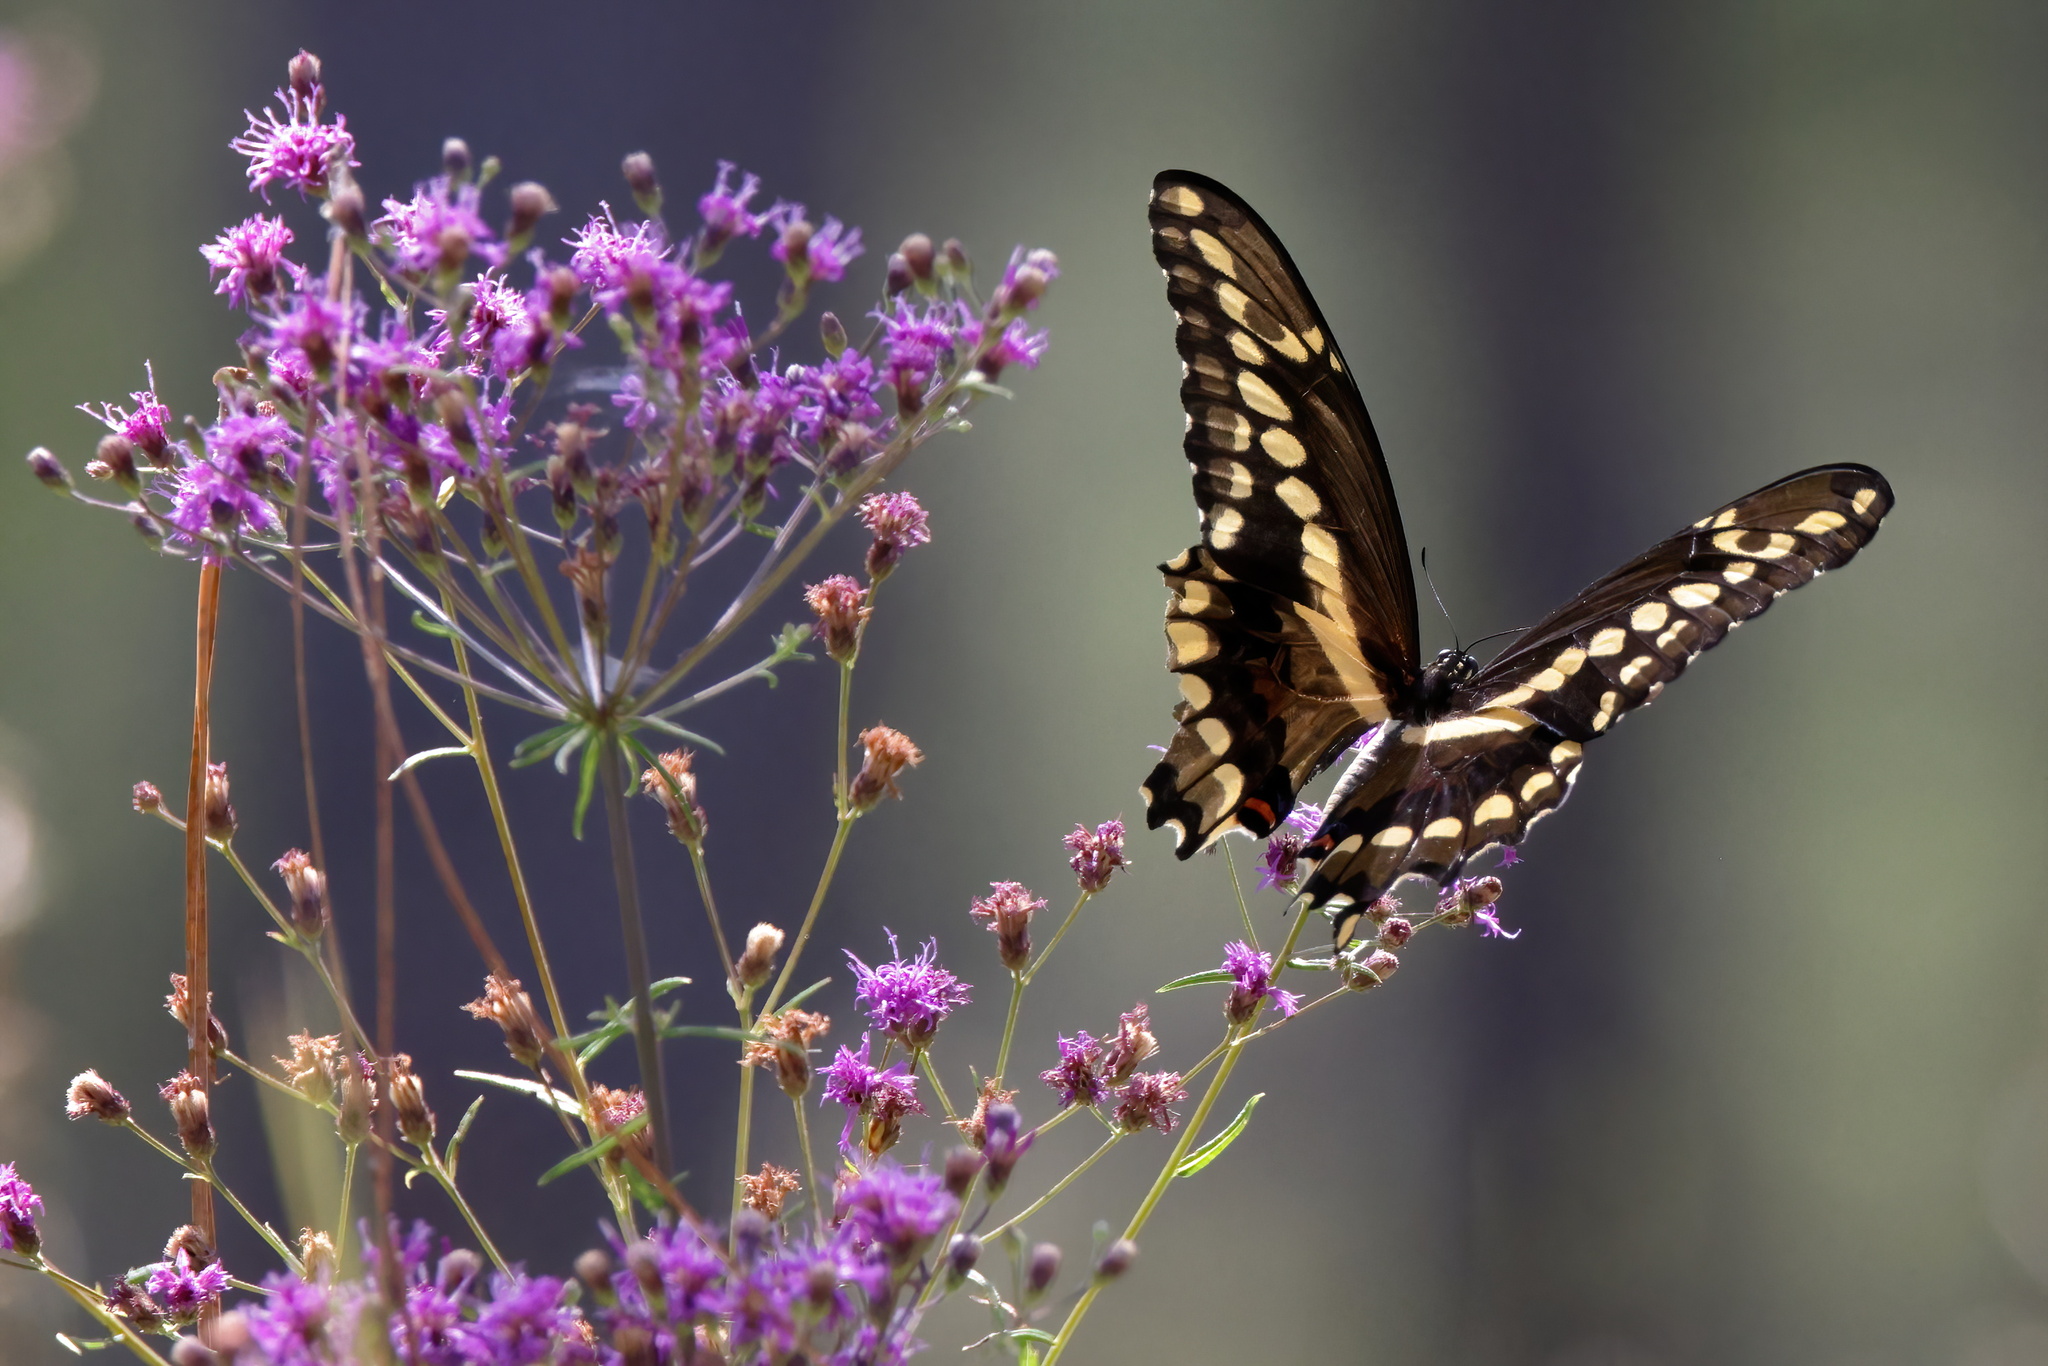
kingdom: Animalia
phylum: Arthropoda
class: Insecta
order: Lepidoptera
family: Papilionidae
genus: Papilio
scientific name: Papilio cresphontes
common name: Giant swallowtail
